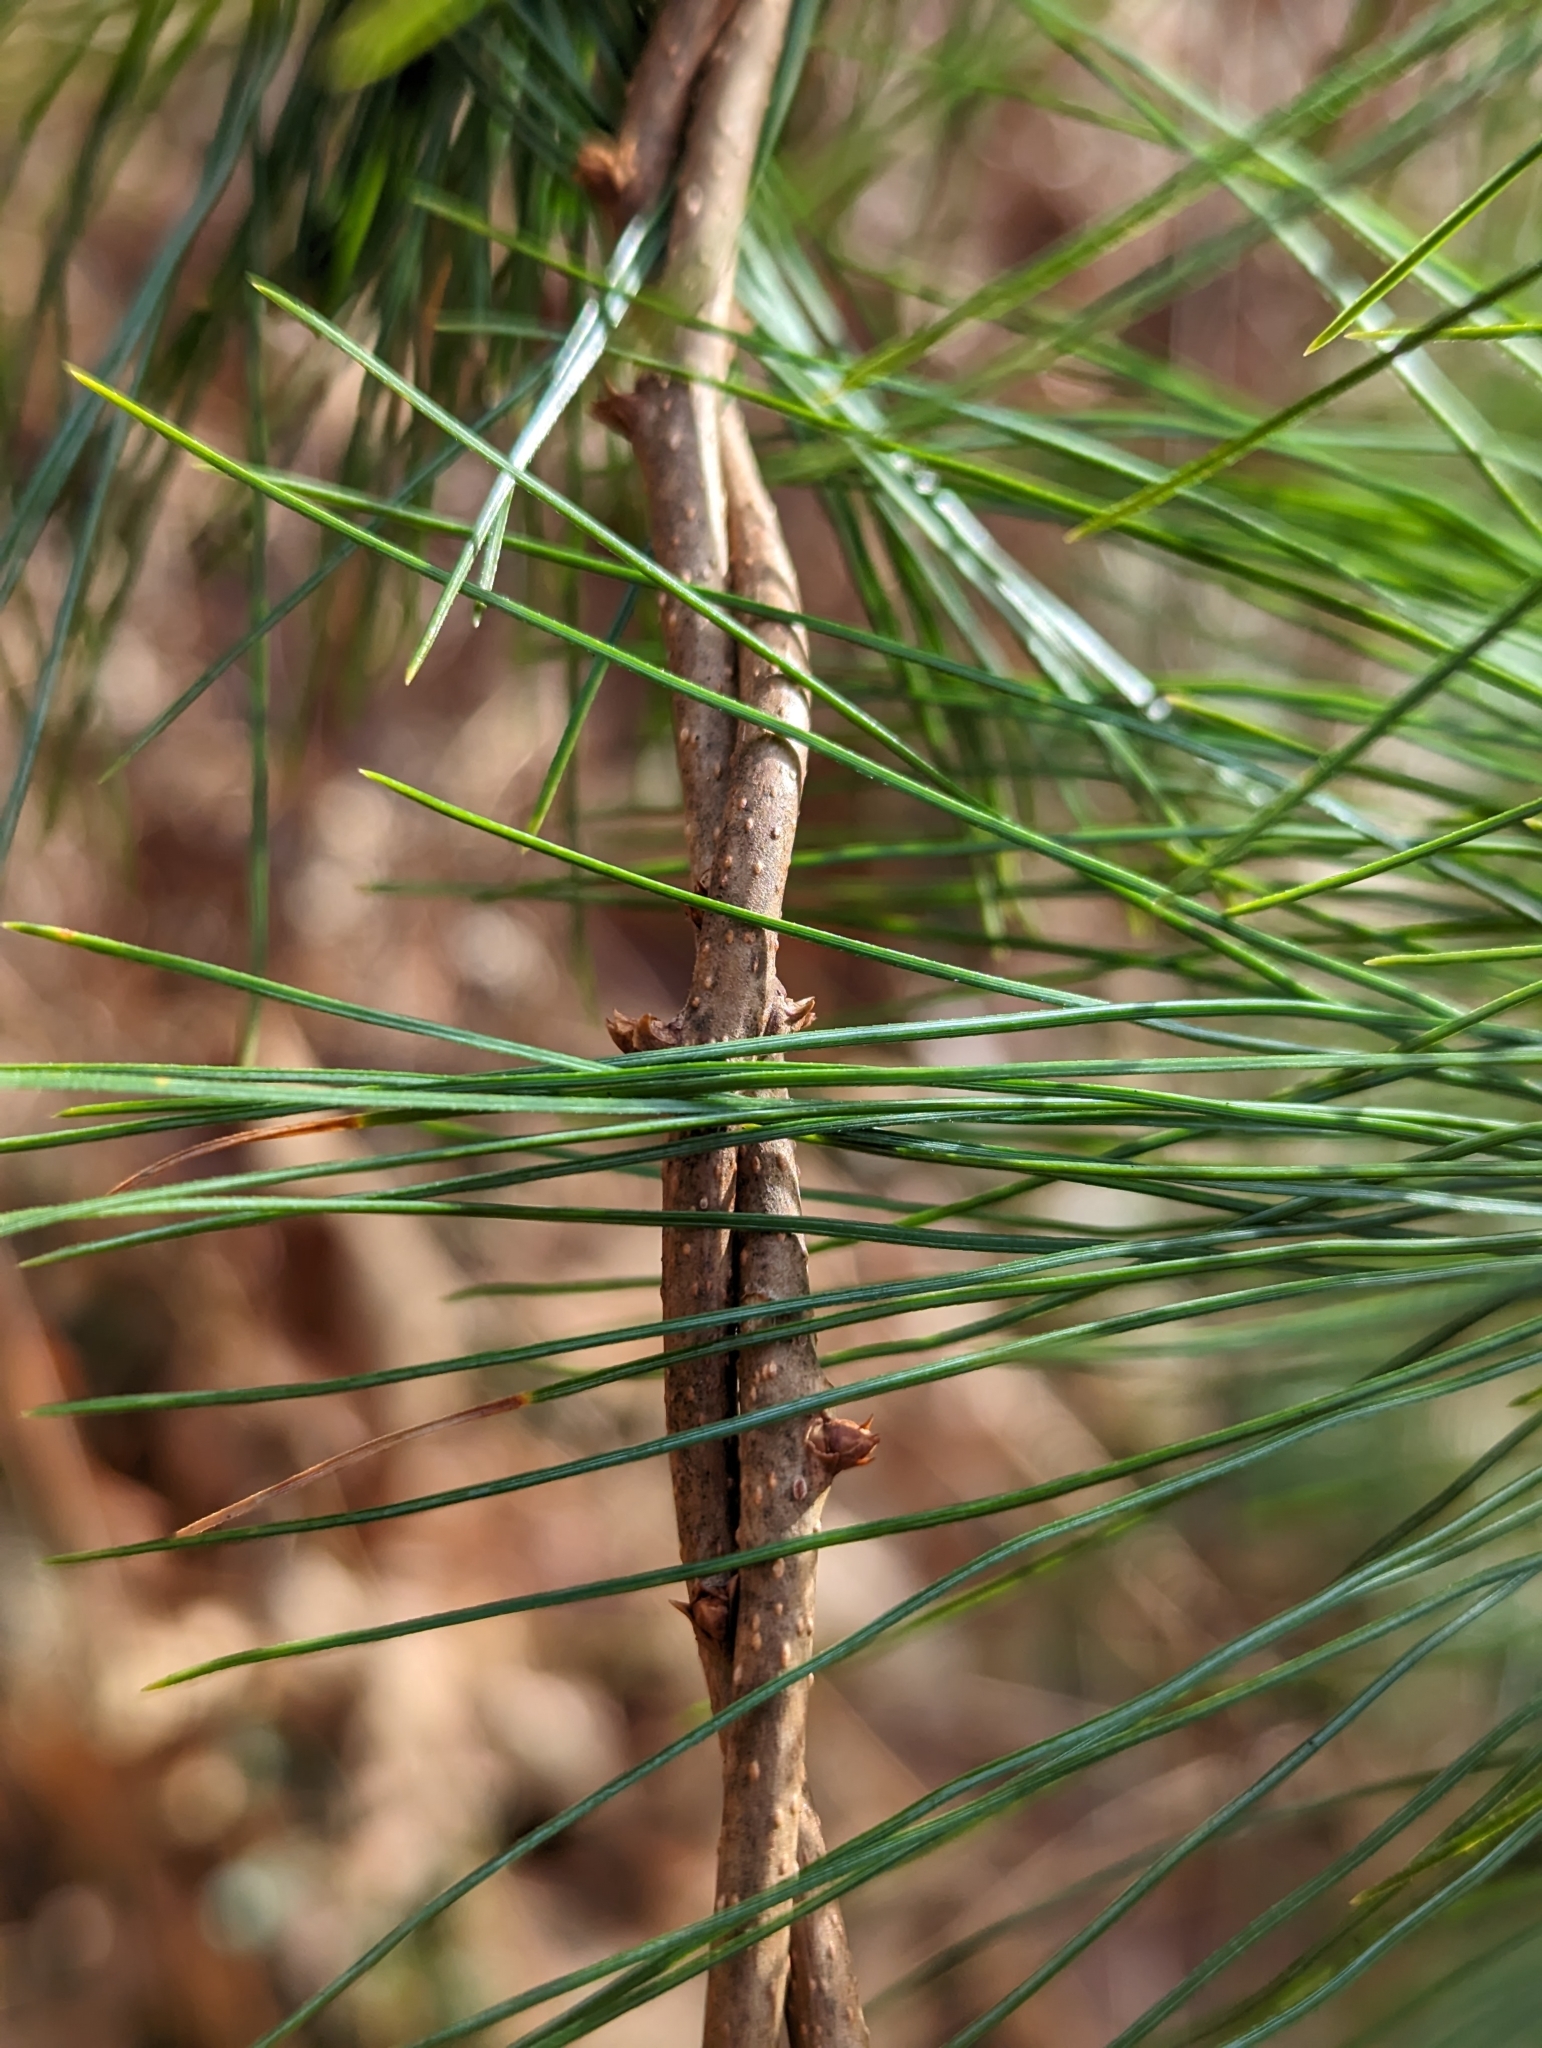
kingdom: Plantae
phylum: Tracheophyta
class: Magnoliopsida
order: Celastrales
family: Celastraceae
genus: Celastrus
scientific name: Celastrus orbiculatus
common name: Oriental bittersweet
